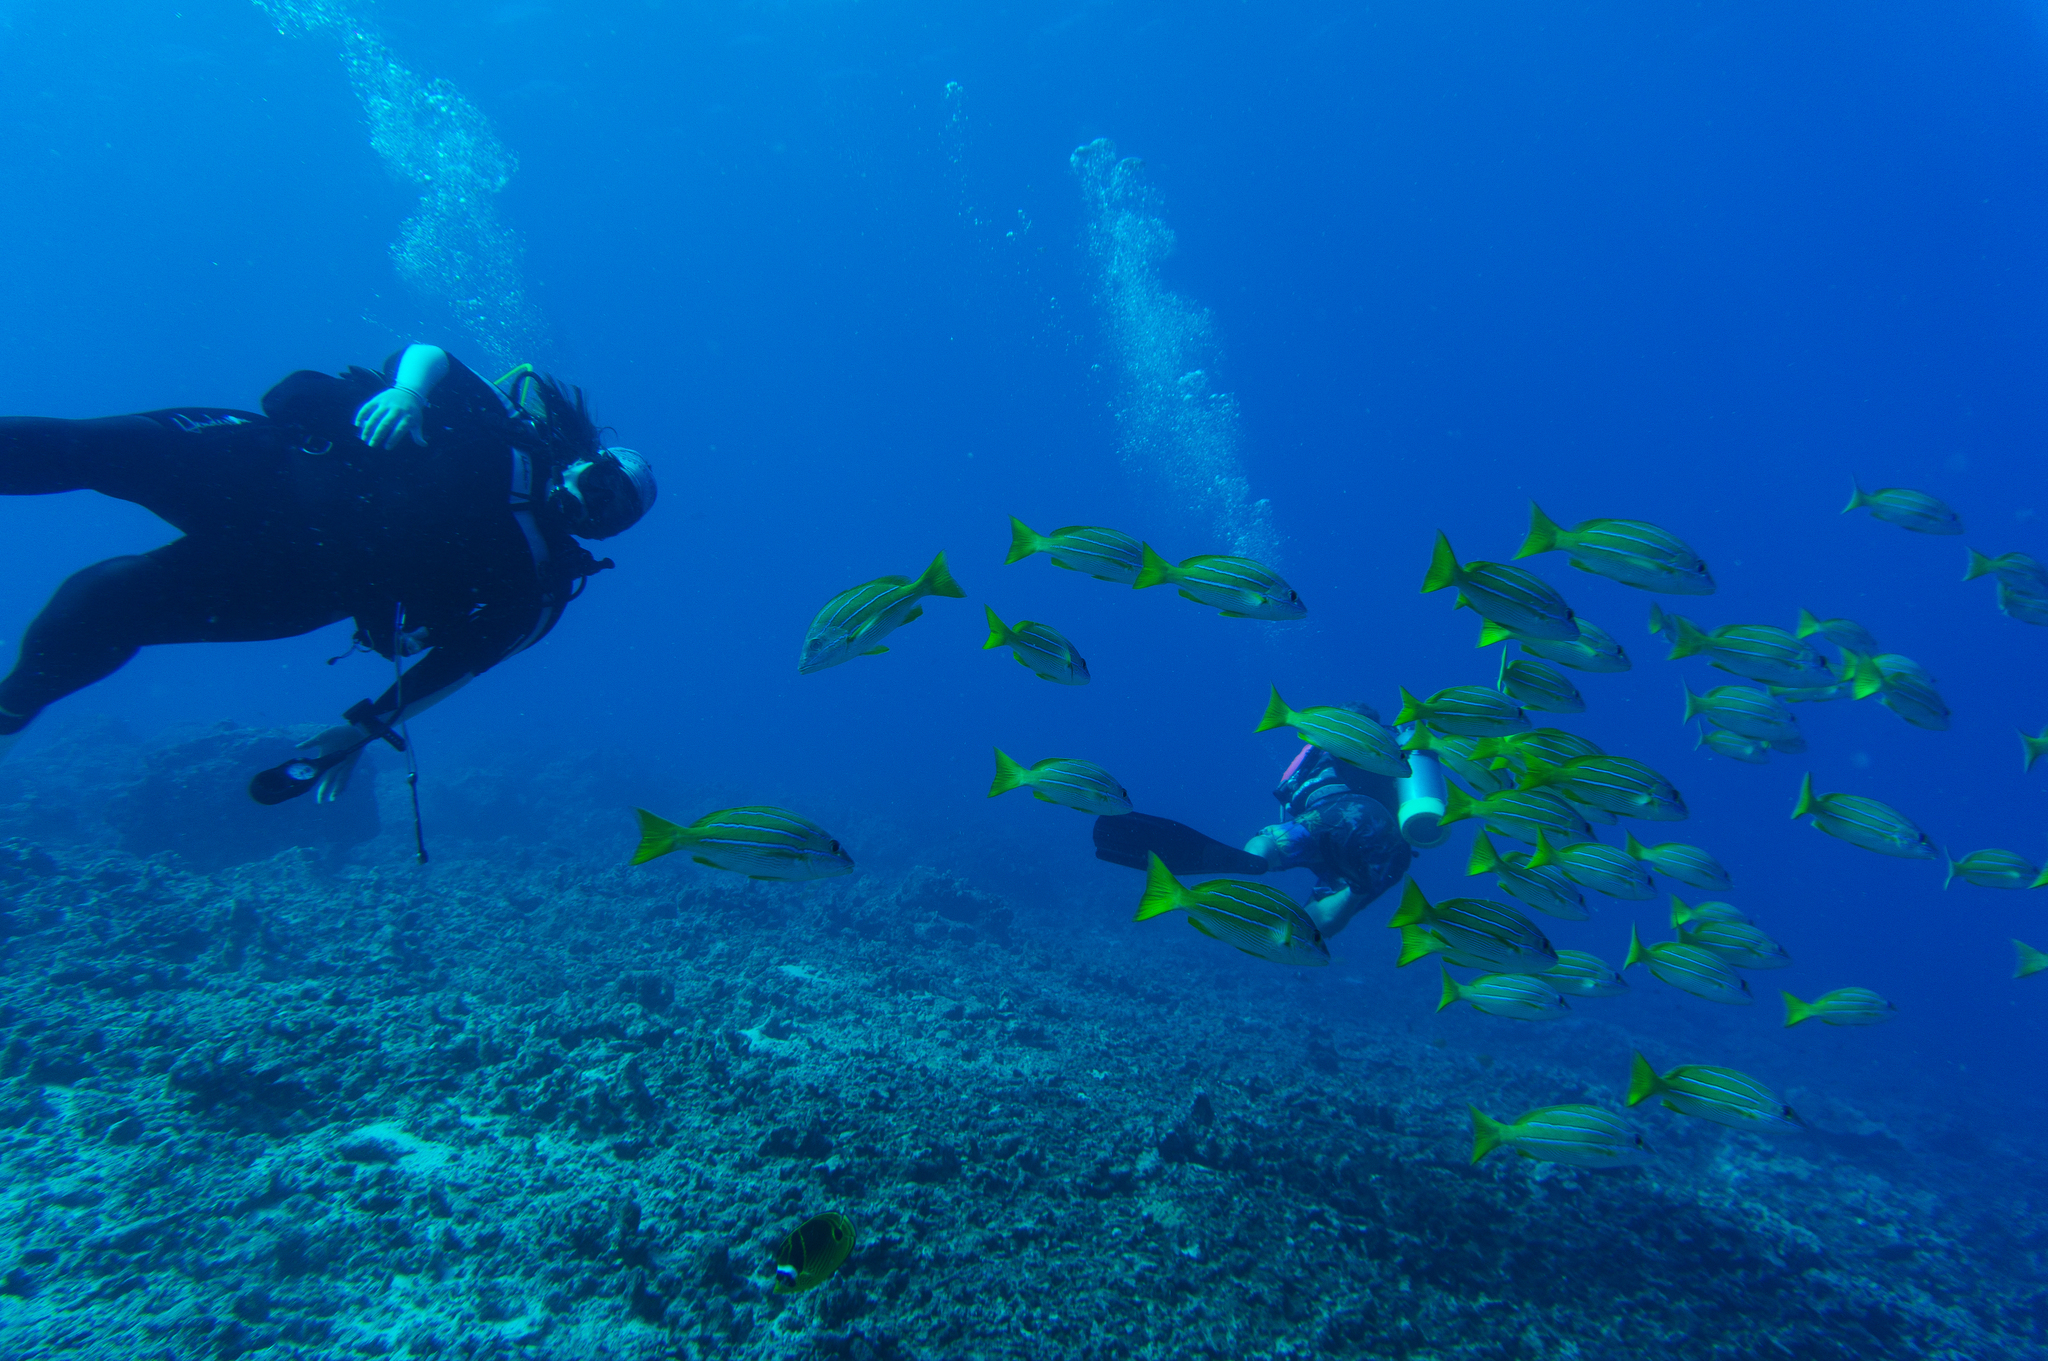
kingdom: Animalia
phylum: Chordata
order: Perciformes
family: Lutjanidae
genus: Lutjanus
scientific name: Lutjanus kasmira
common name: Common bluestripe snapper
